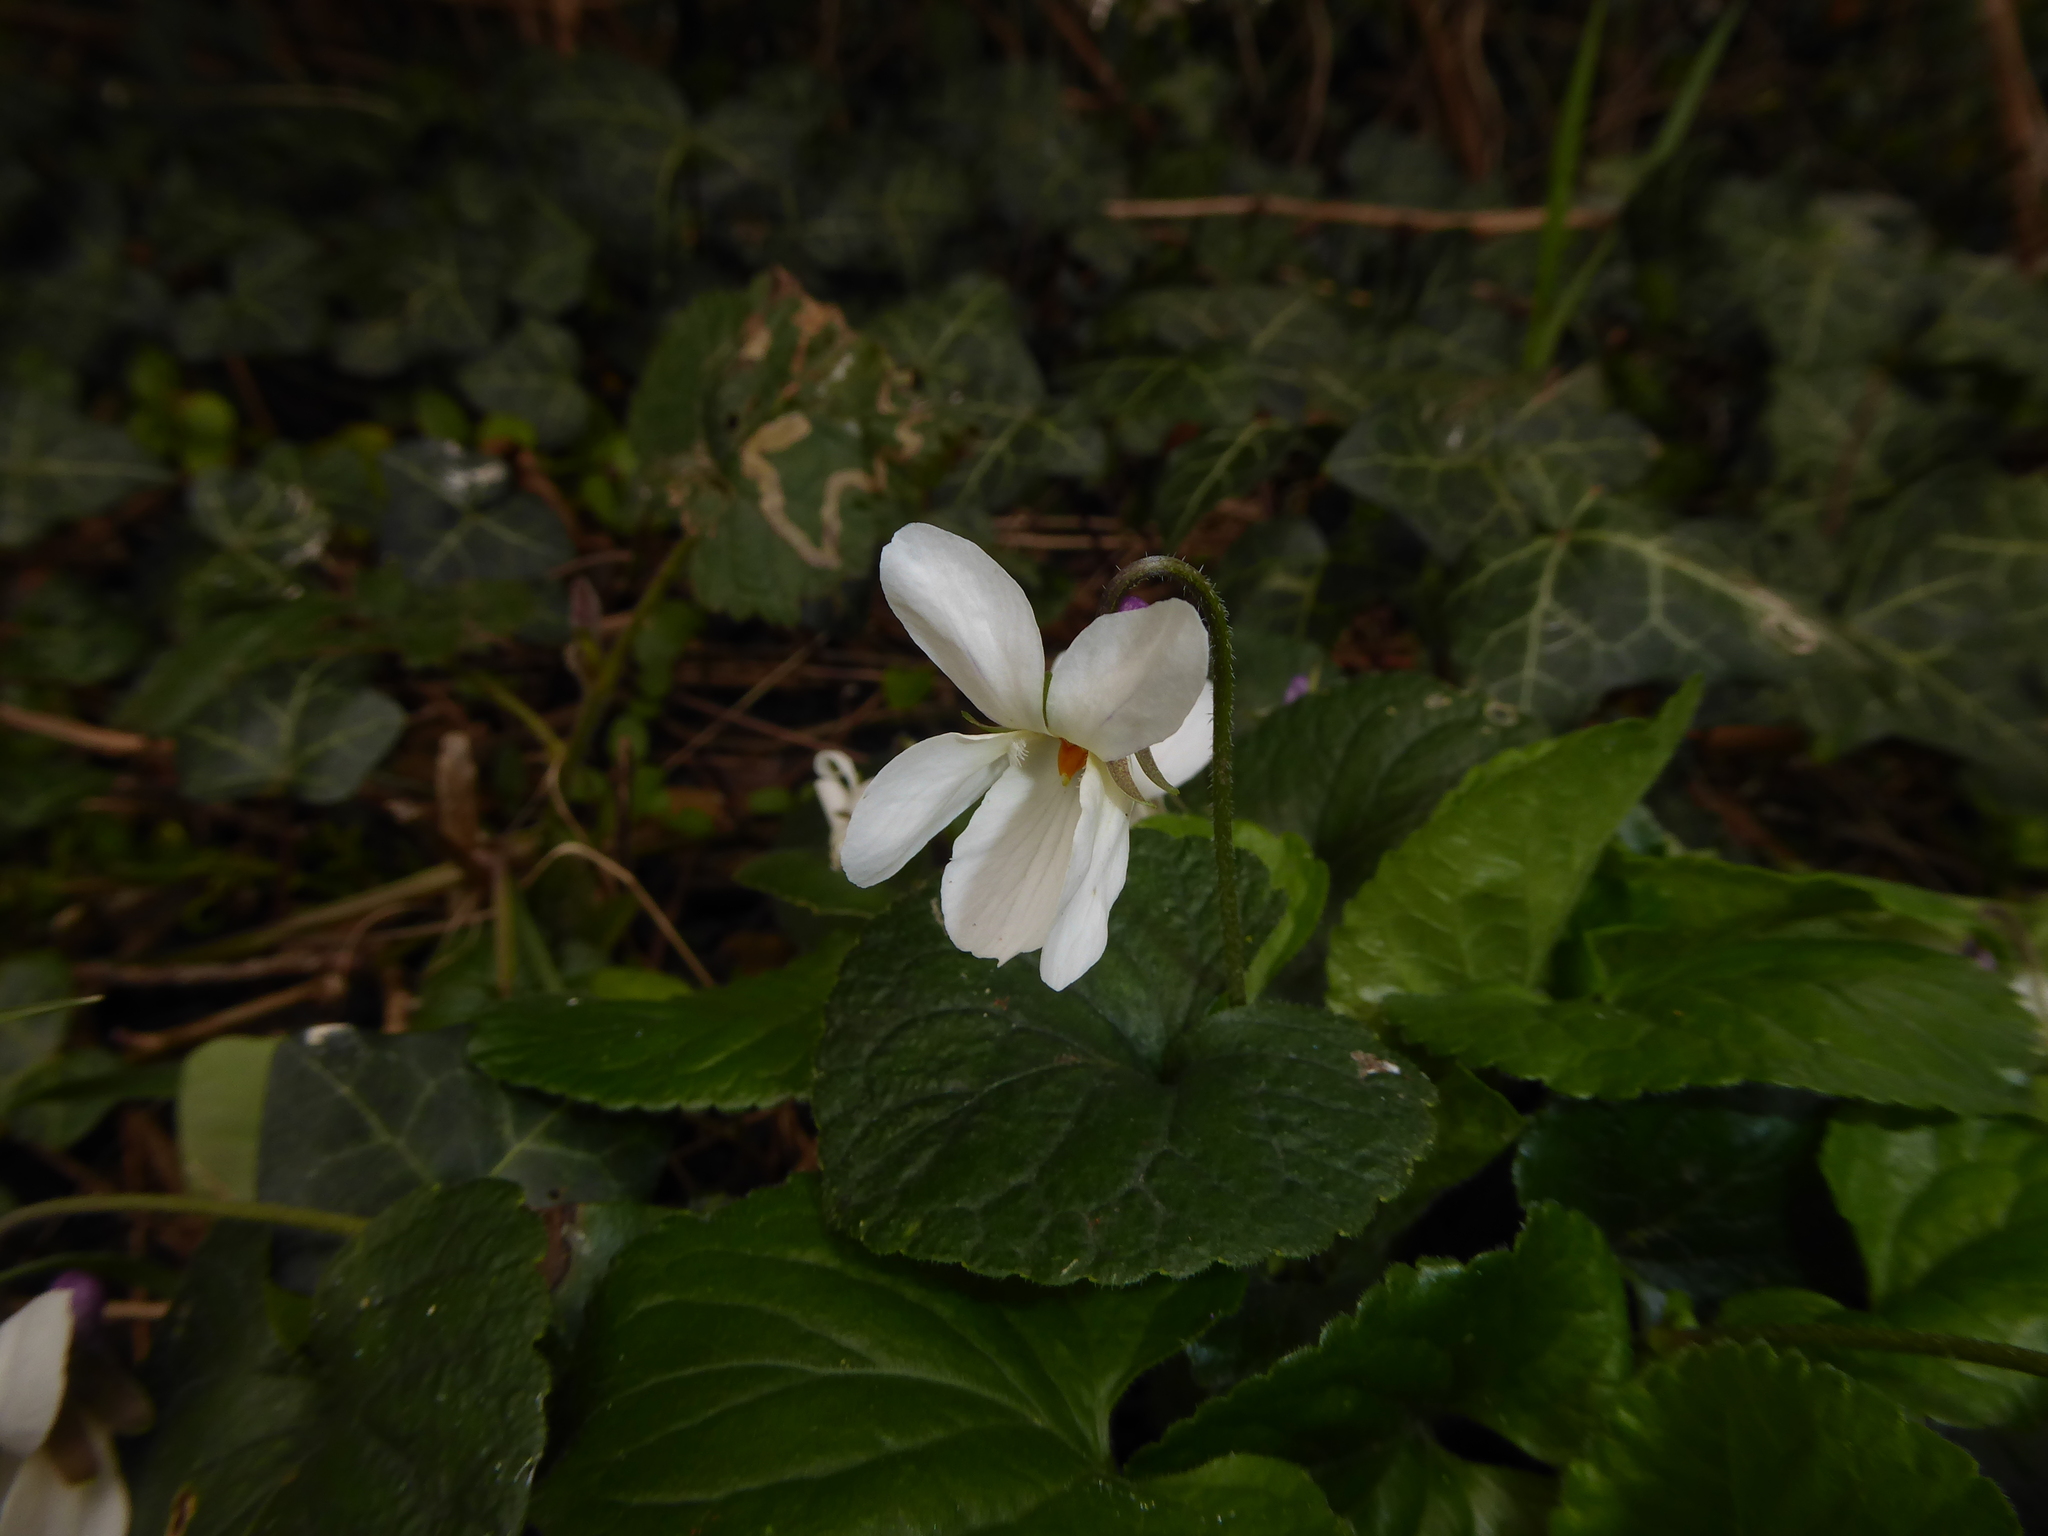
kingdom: Plantae
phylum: Tracheophyta
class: Magnoliopsida
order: Malpighiales
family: Violaceae
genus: Viola
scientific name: Viola odorata
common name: Sweet violet
